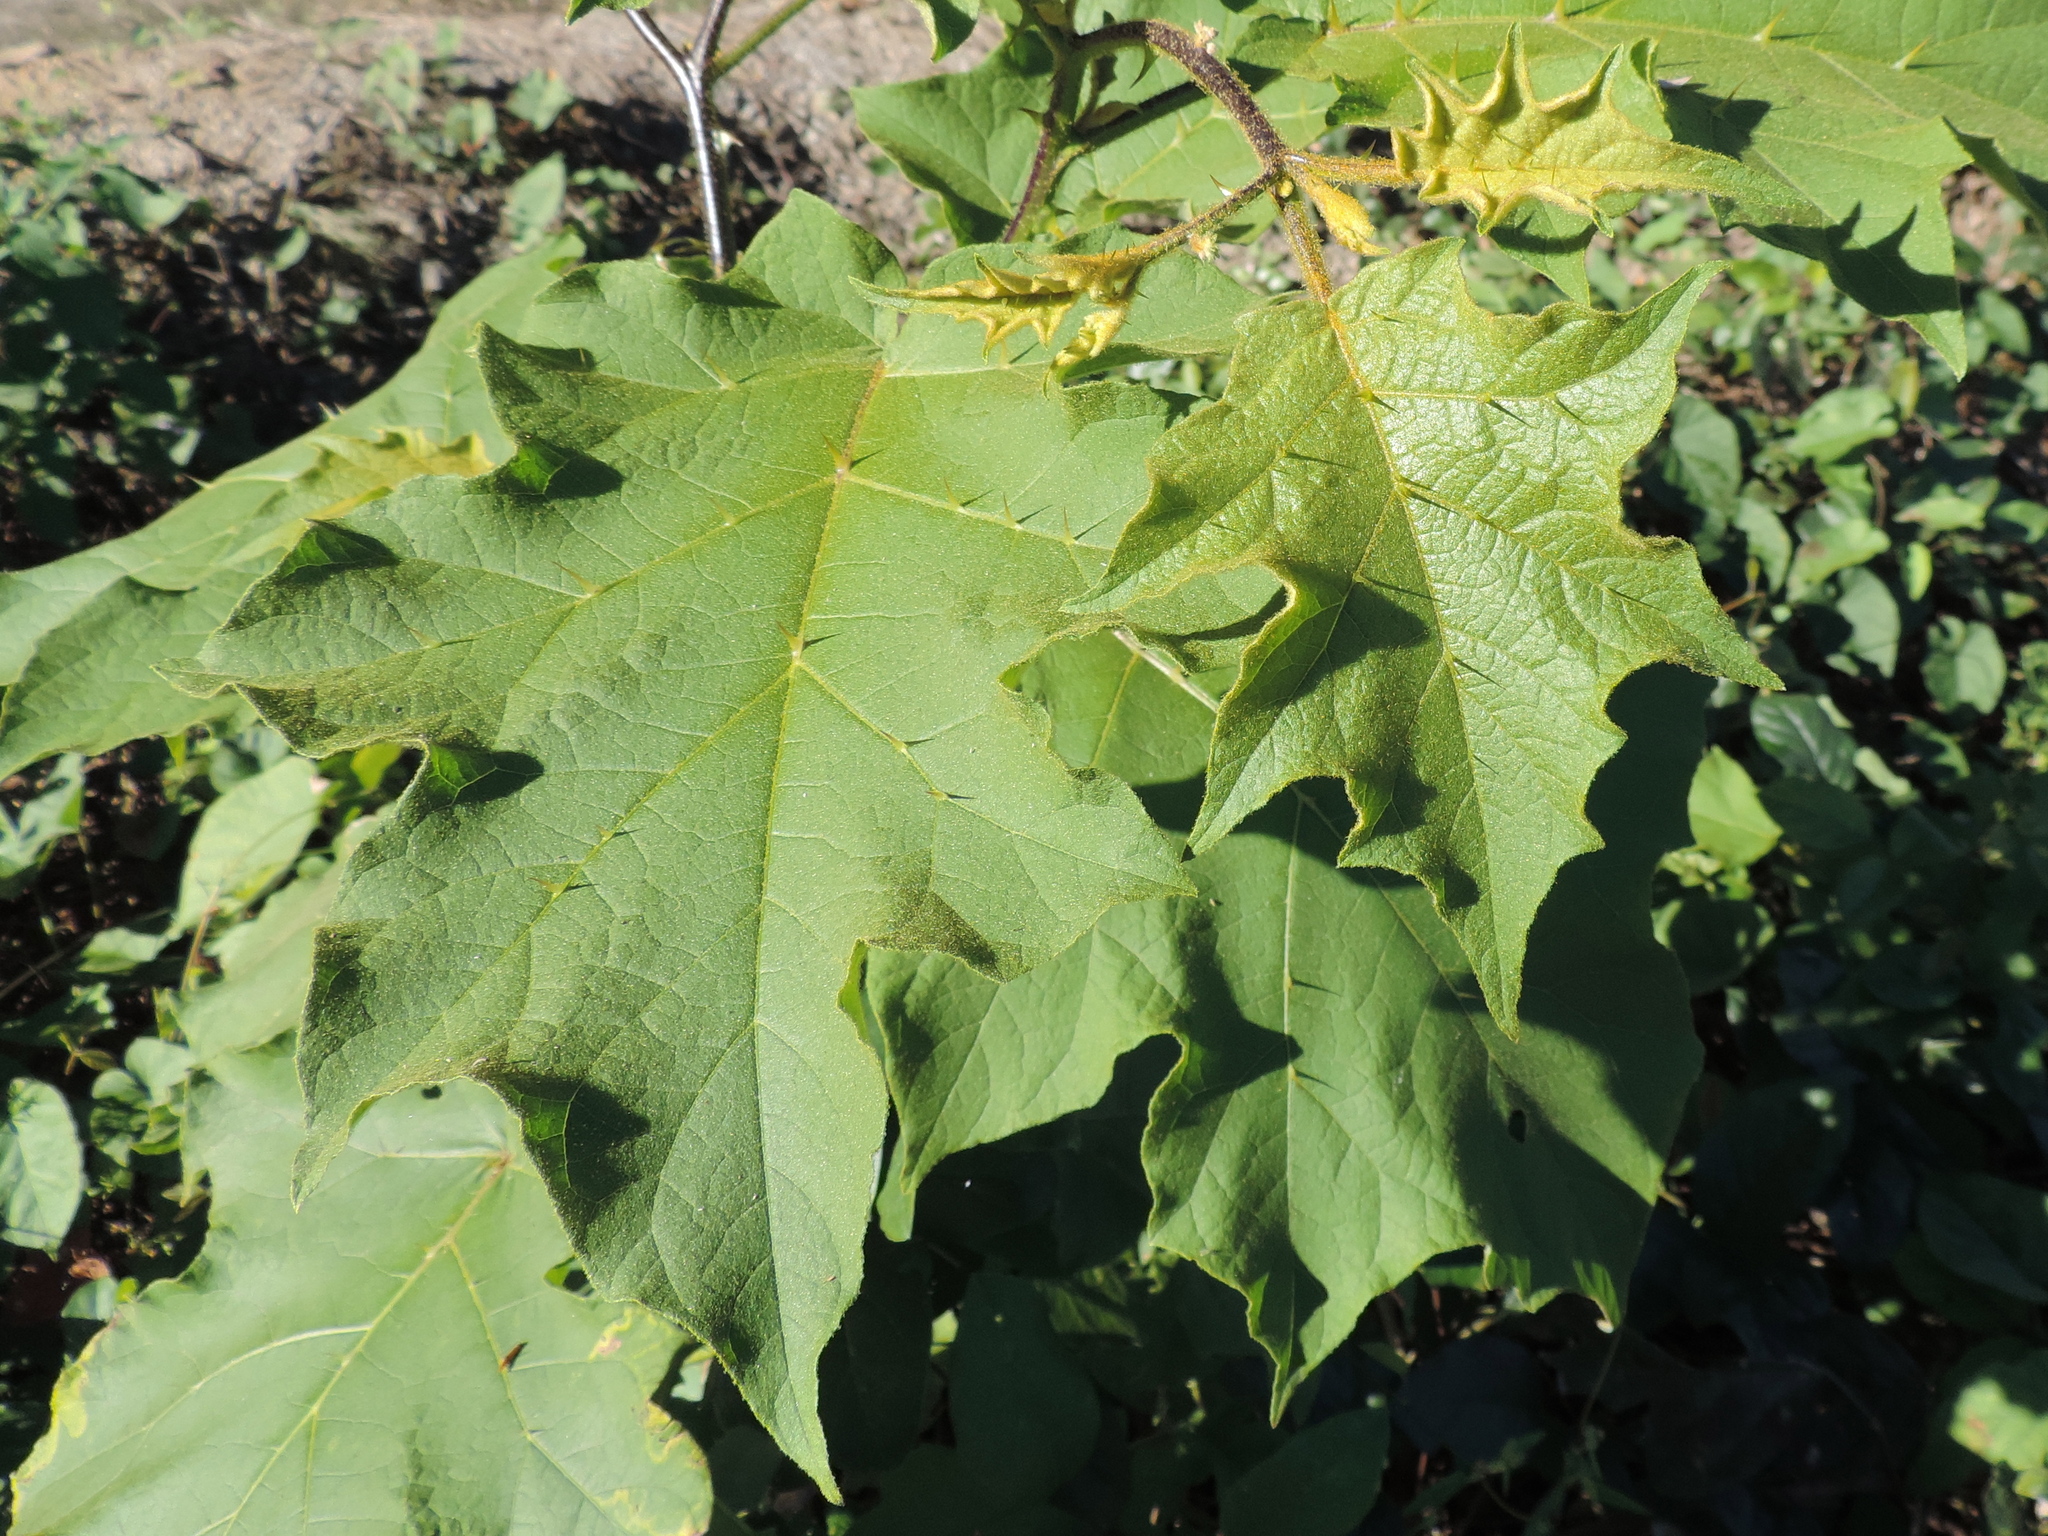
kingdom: Plantae
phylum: Tracheophyta
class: Magnoliopsida
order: Solanales
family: Solanaceae
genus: Solanum
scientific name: Solanum ferrugineum
